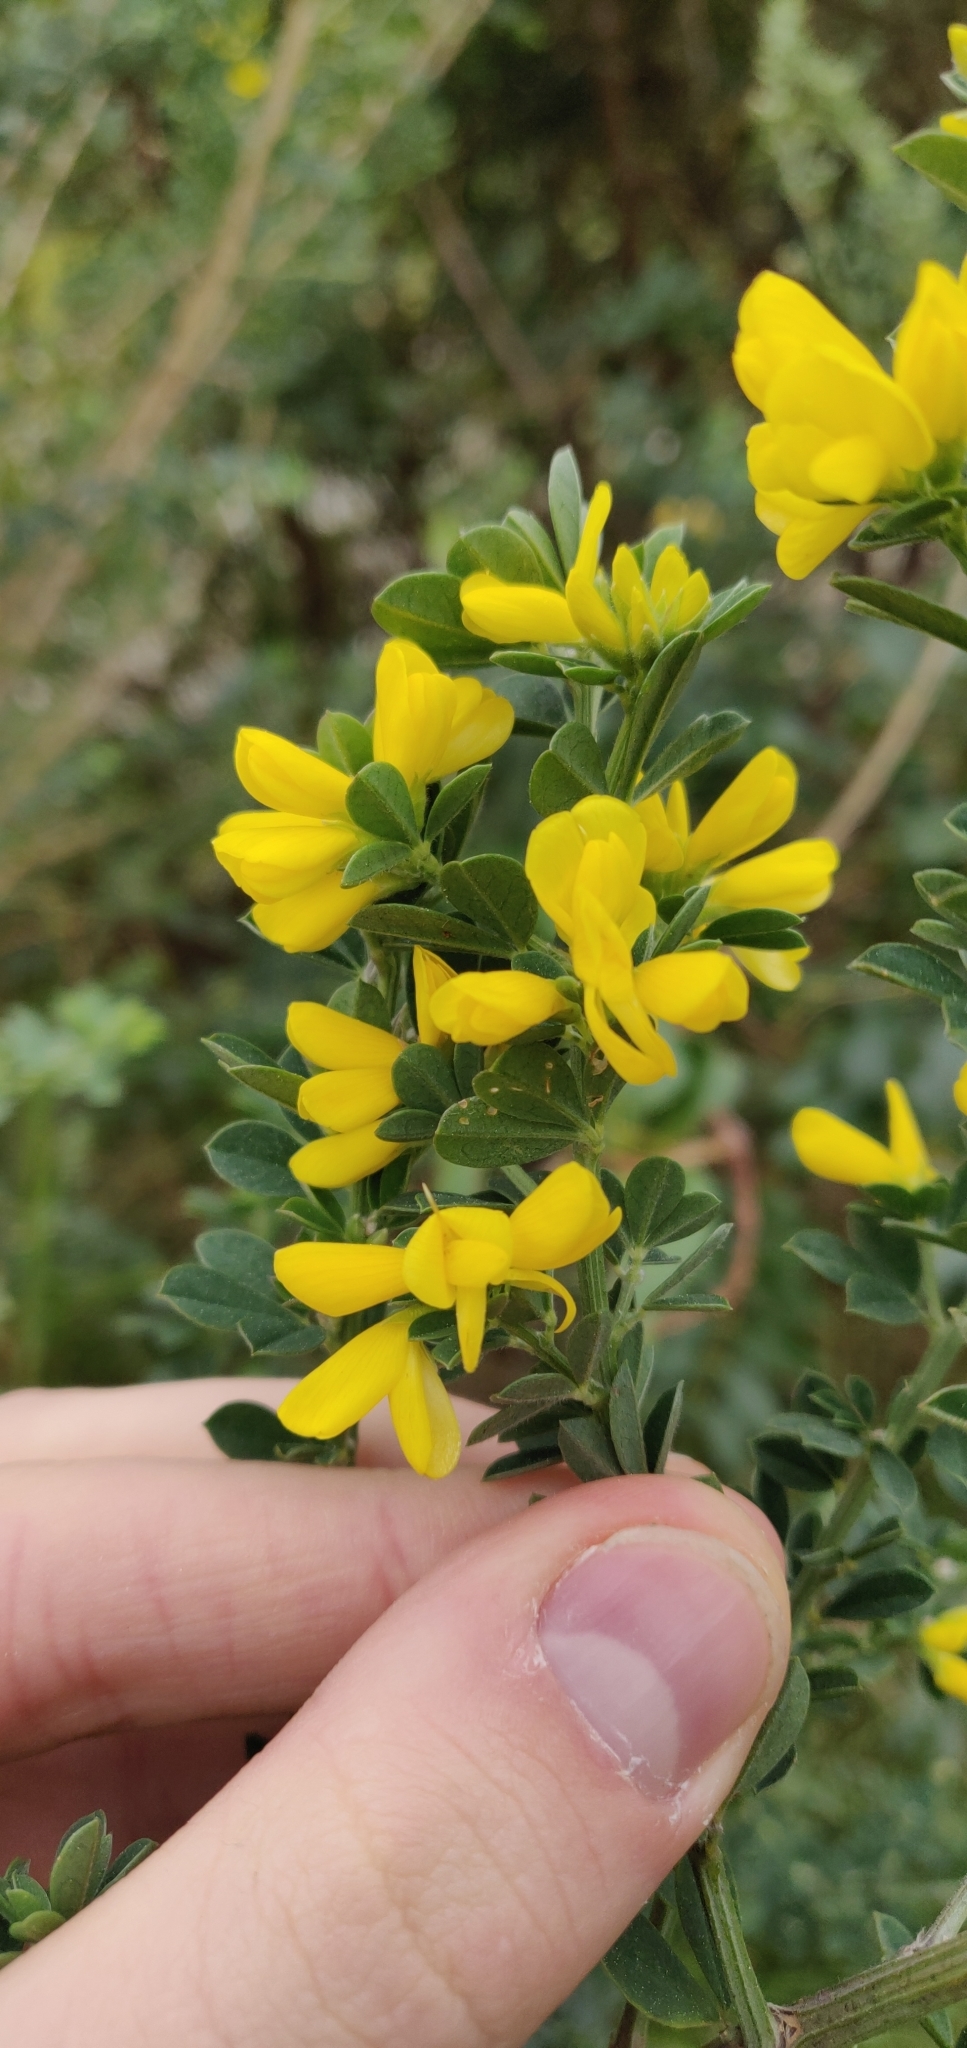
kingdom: Plantae
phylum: Tracheophyta
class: Magnoliopsida
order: Fabales
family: Fabaceae
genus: Genista
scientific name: Genista monspessulana
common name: Montpellier broom
